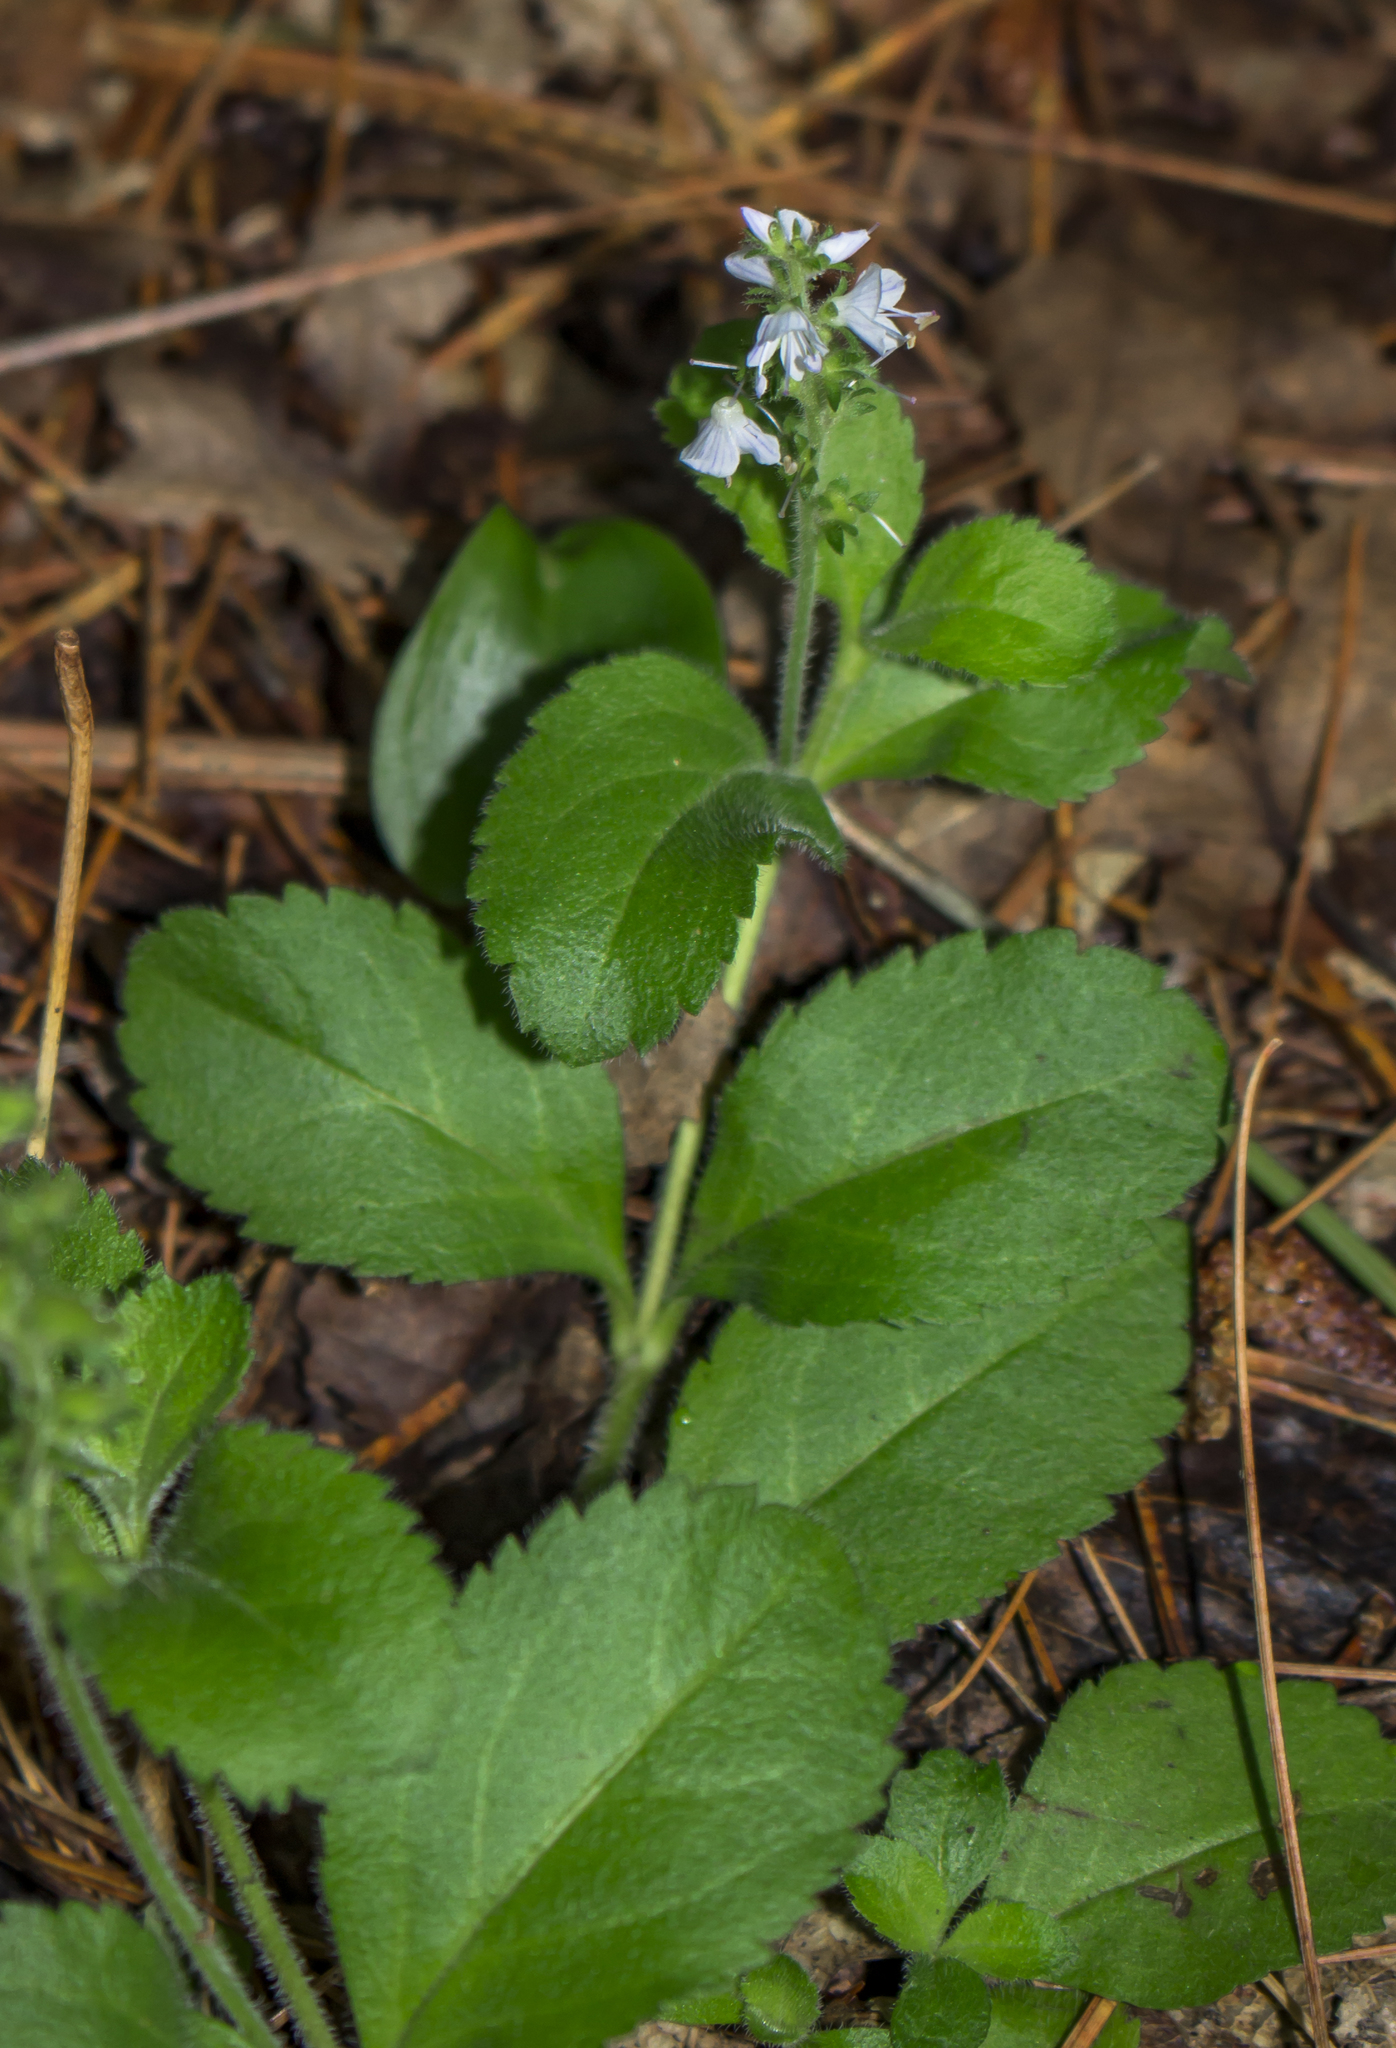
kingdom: Plantae
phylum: Tracheophyta
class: Magnoliopsida
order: Lamiales
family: Plantaginaceae
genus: Veronica
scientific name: Veronica officinalis
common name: Common speedwell
